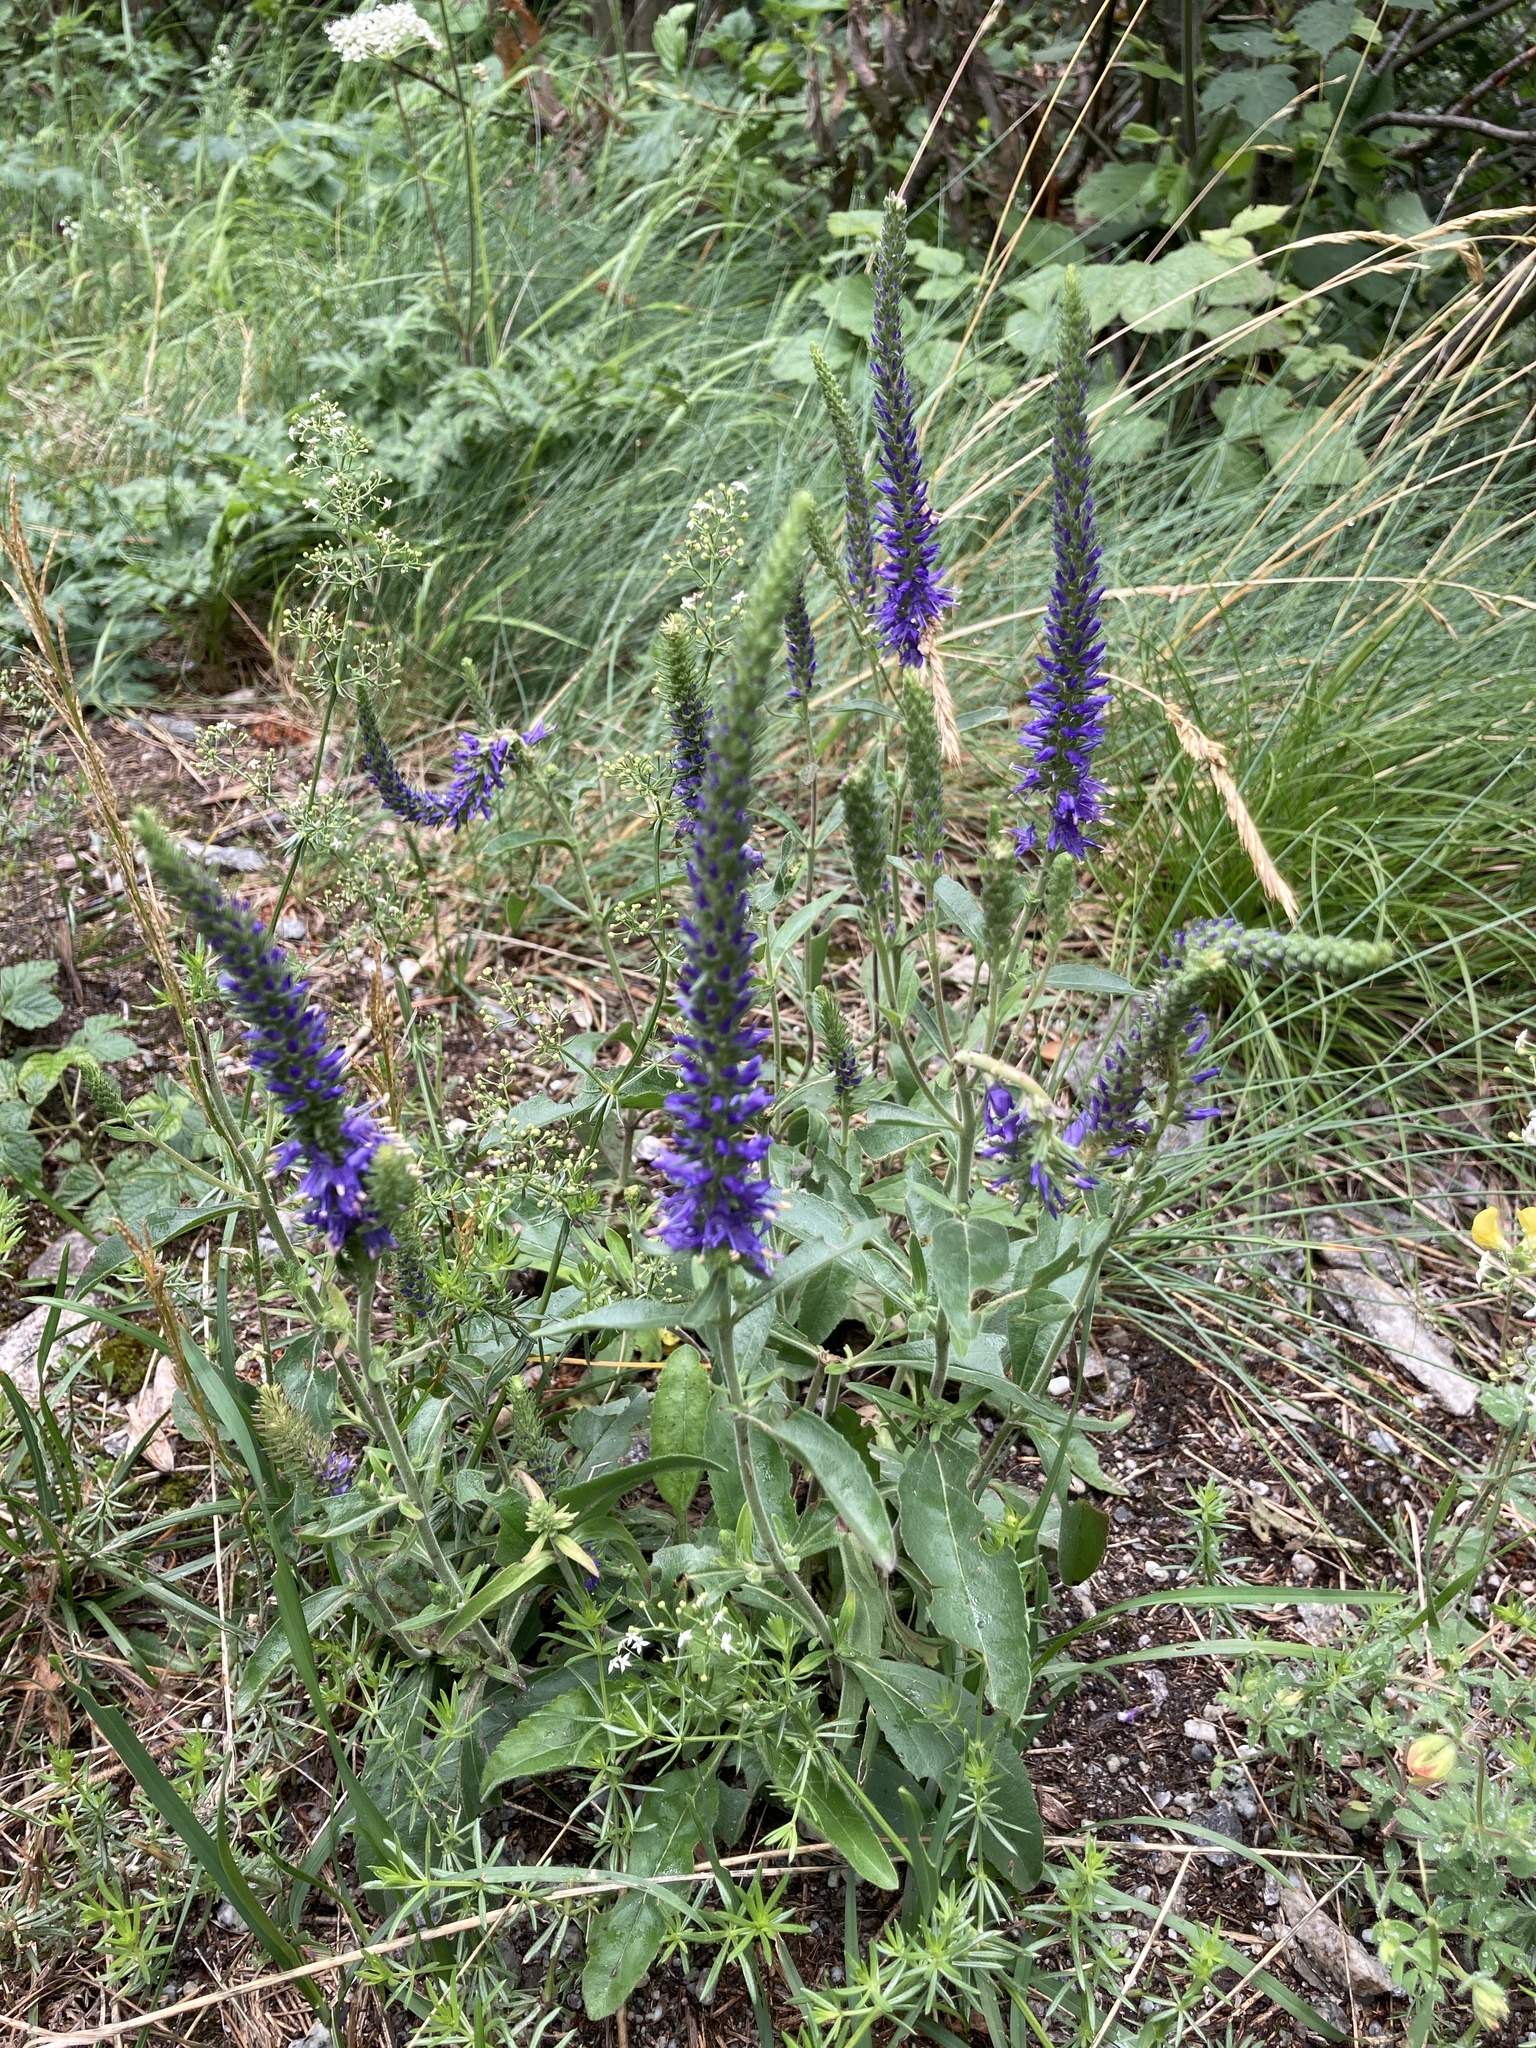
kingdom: Plantae
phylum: Tracheophyta
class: Magnoliopsida
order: Lamiales
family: Plantaginaceae
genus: Veronica
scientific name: Veronica spicata
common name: Spiked speedwell
